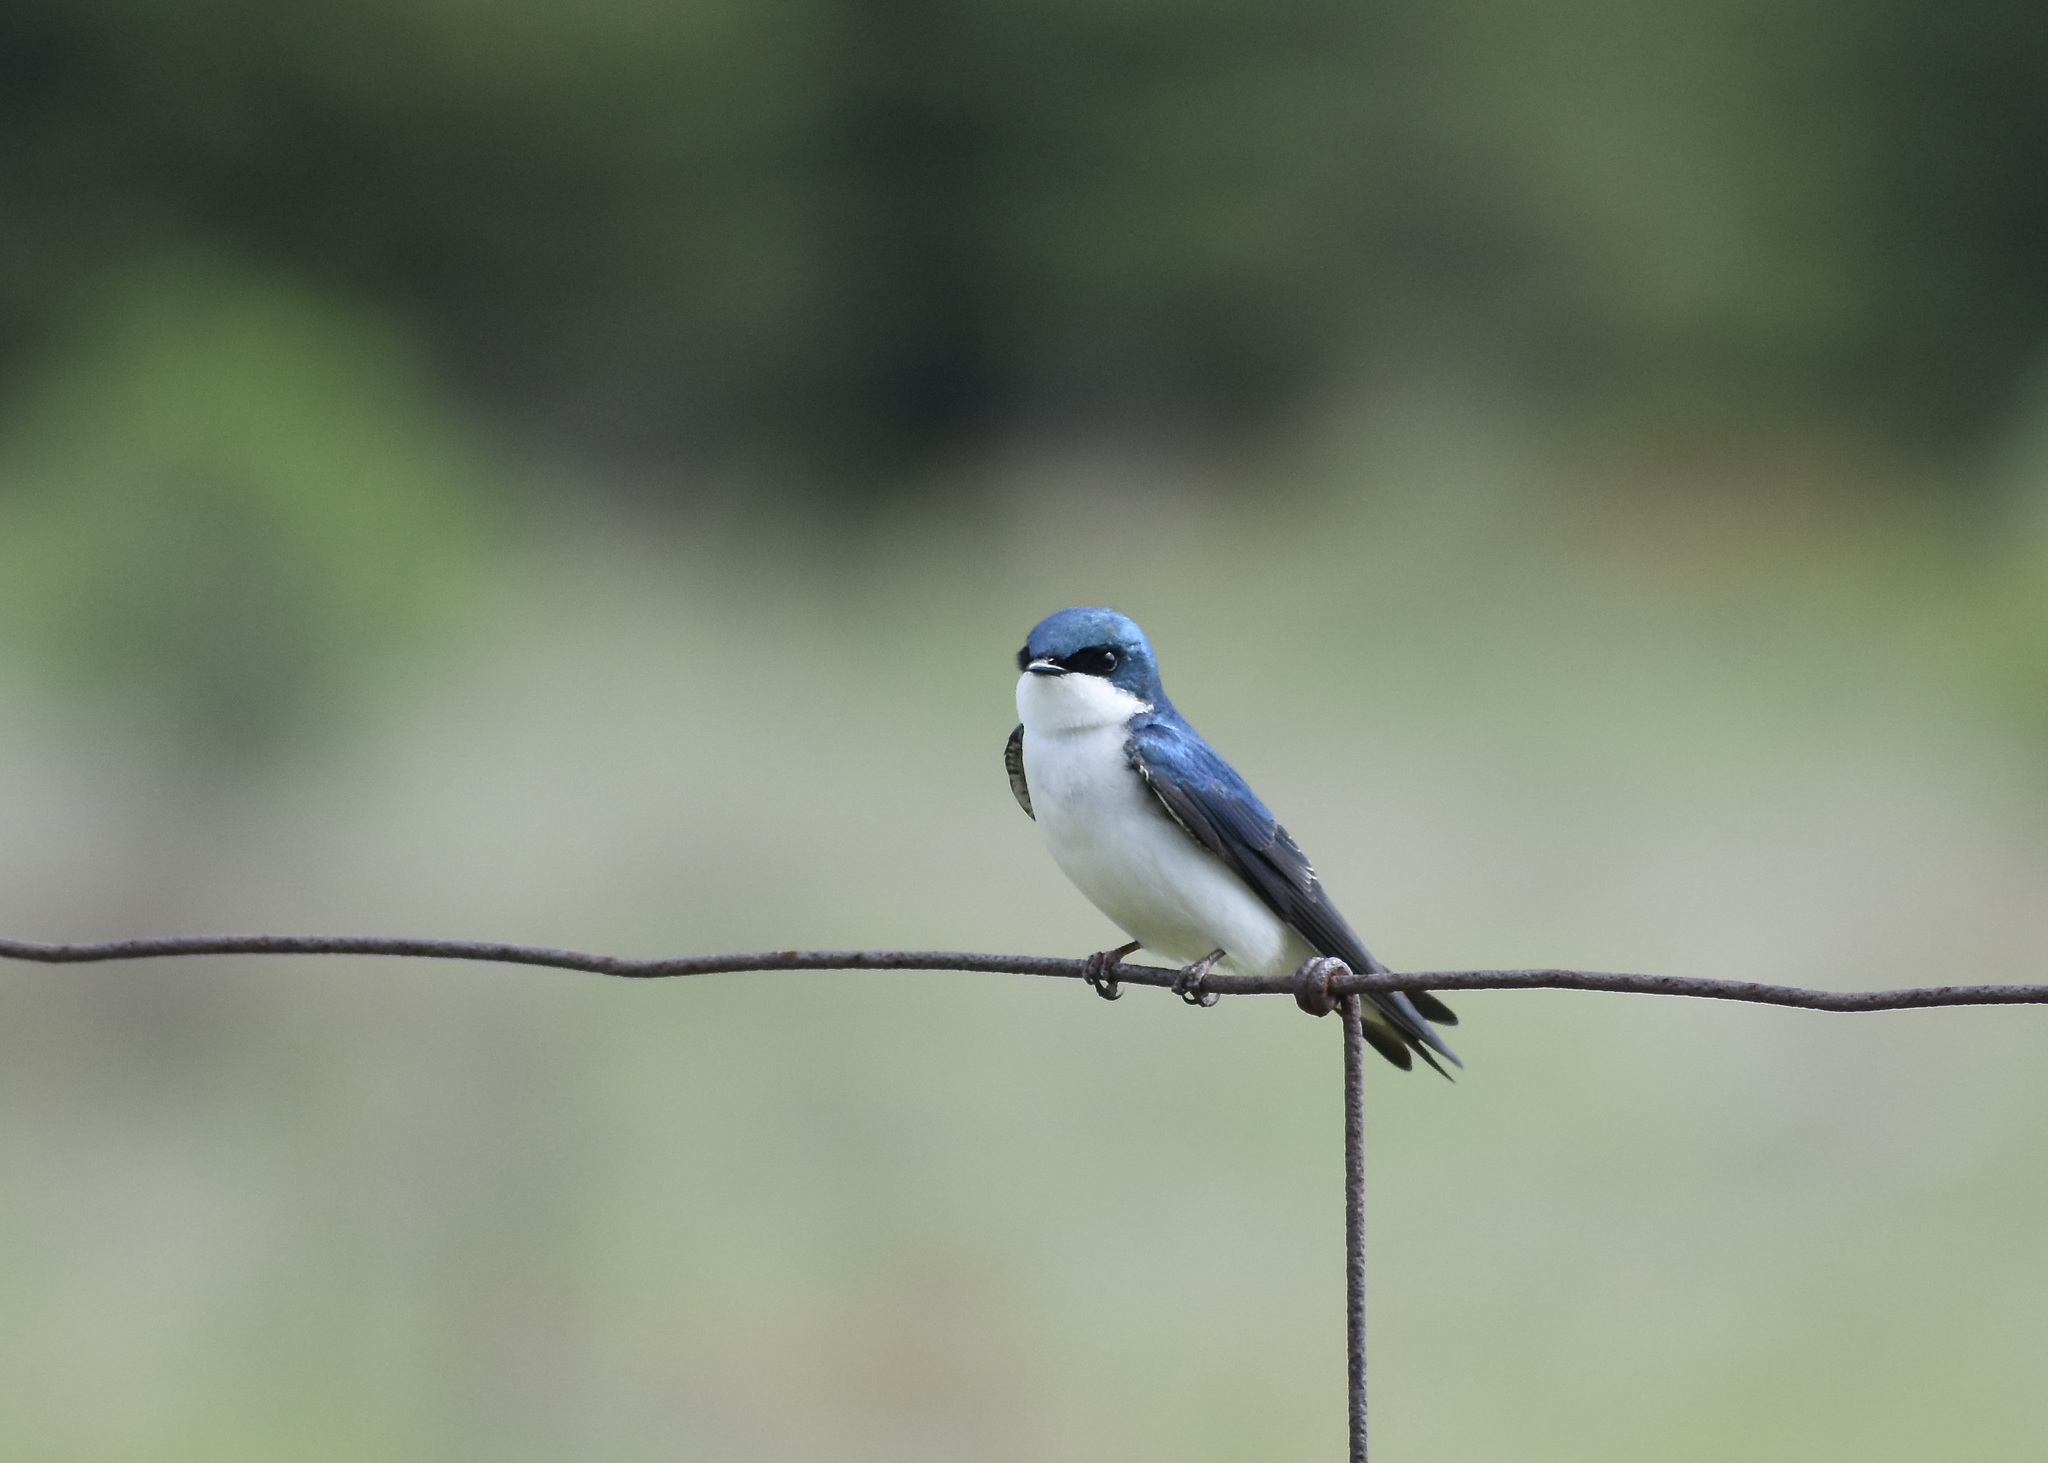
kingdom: Animalia
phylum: Chordata
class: Aves
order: Passeriformes
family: Hirundinidae
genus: Tachycineta
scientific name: Tachycineta bicolor
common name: Tree swallow
